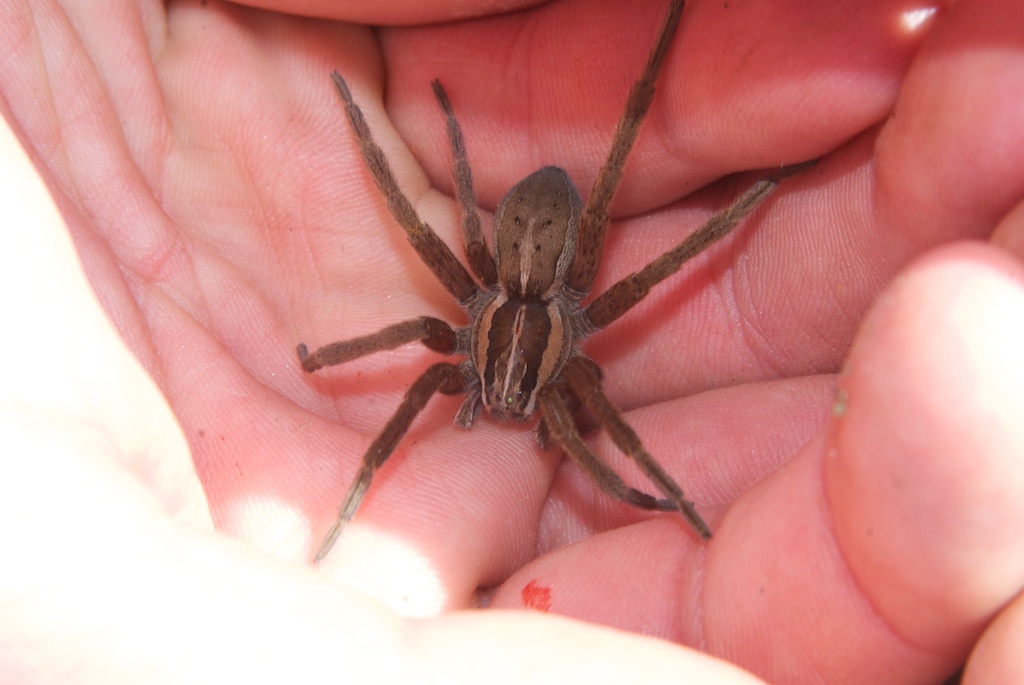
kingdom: Animalia
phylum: Arthropoda
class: Arachnida
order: Araneae
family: Pisauridae
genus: Dolomedes
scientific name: Dolomedes minor
